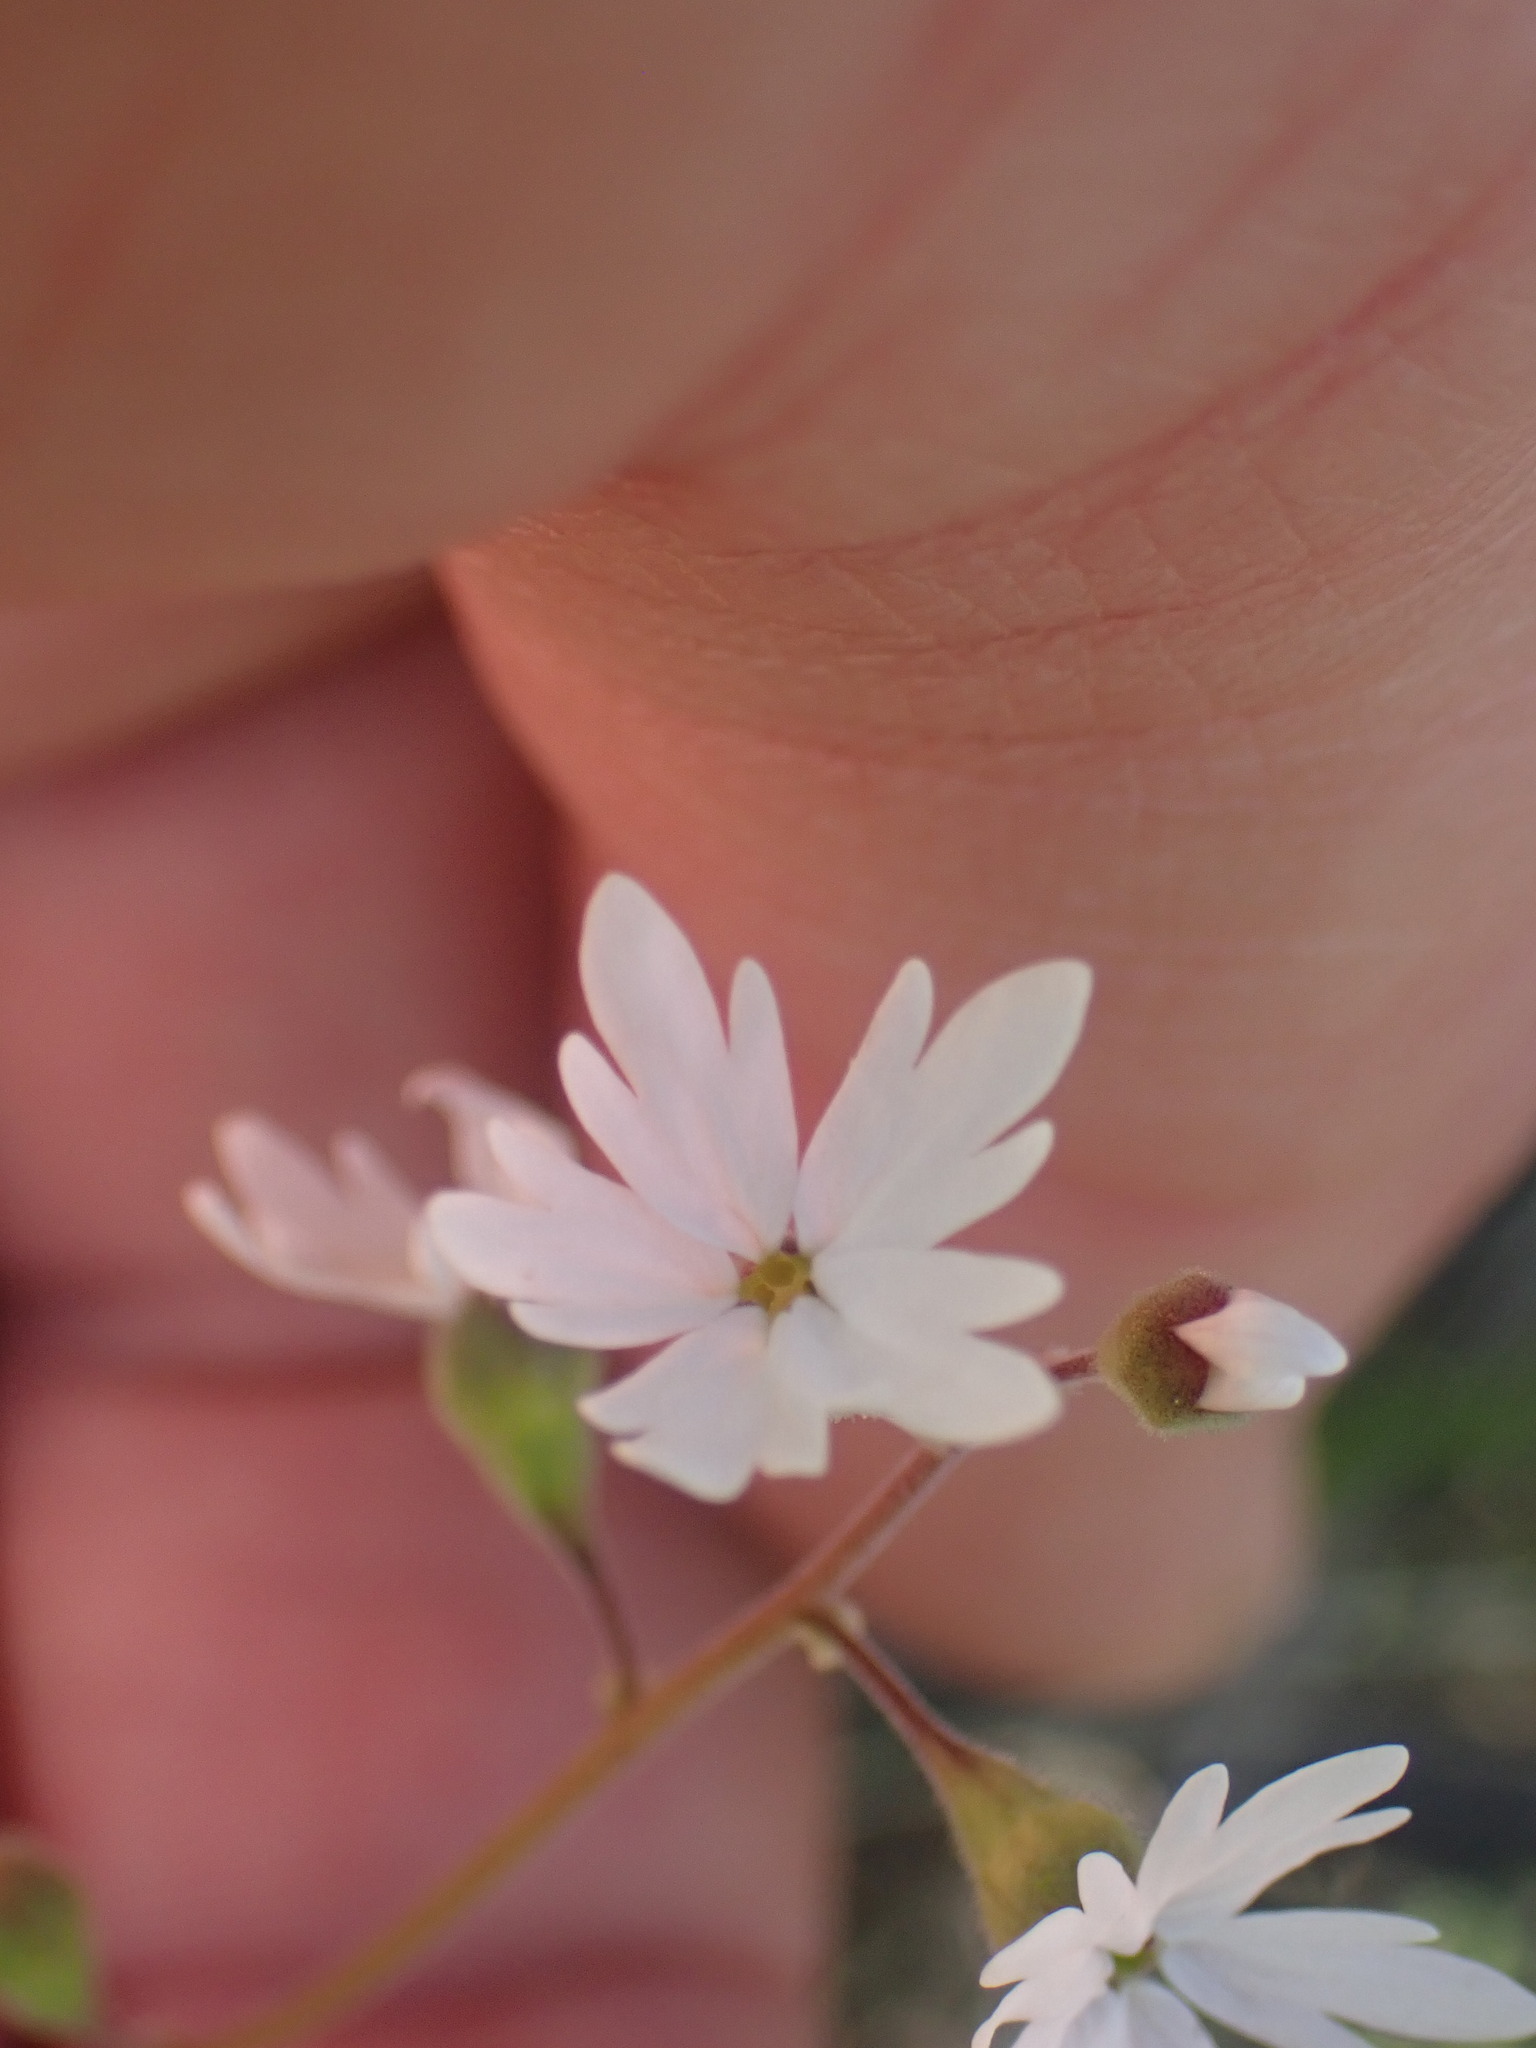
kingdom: Plantae
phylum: Tracheophyta
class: Magnoliopsida
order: Saxifragales
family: Saxifragaceae
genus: Lithophragma
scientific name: Lithophragma parviflorum
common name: Small-flowered fringe-cup
